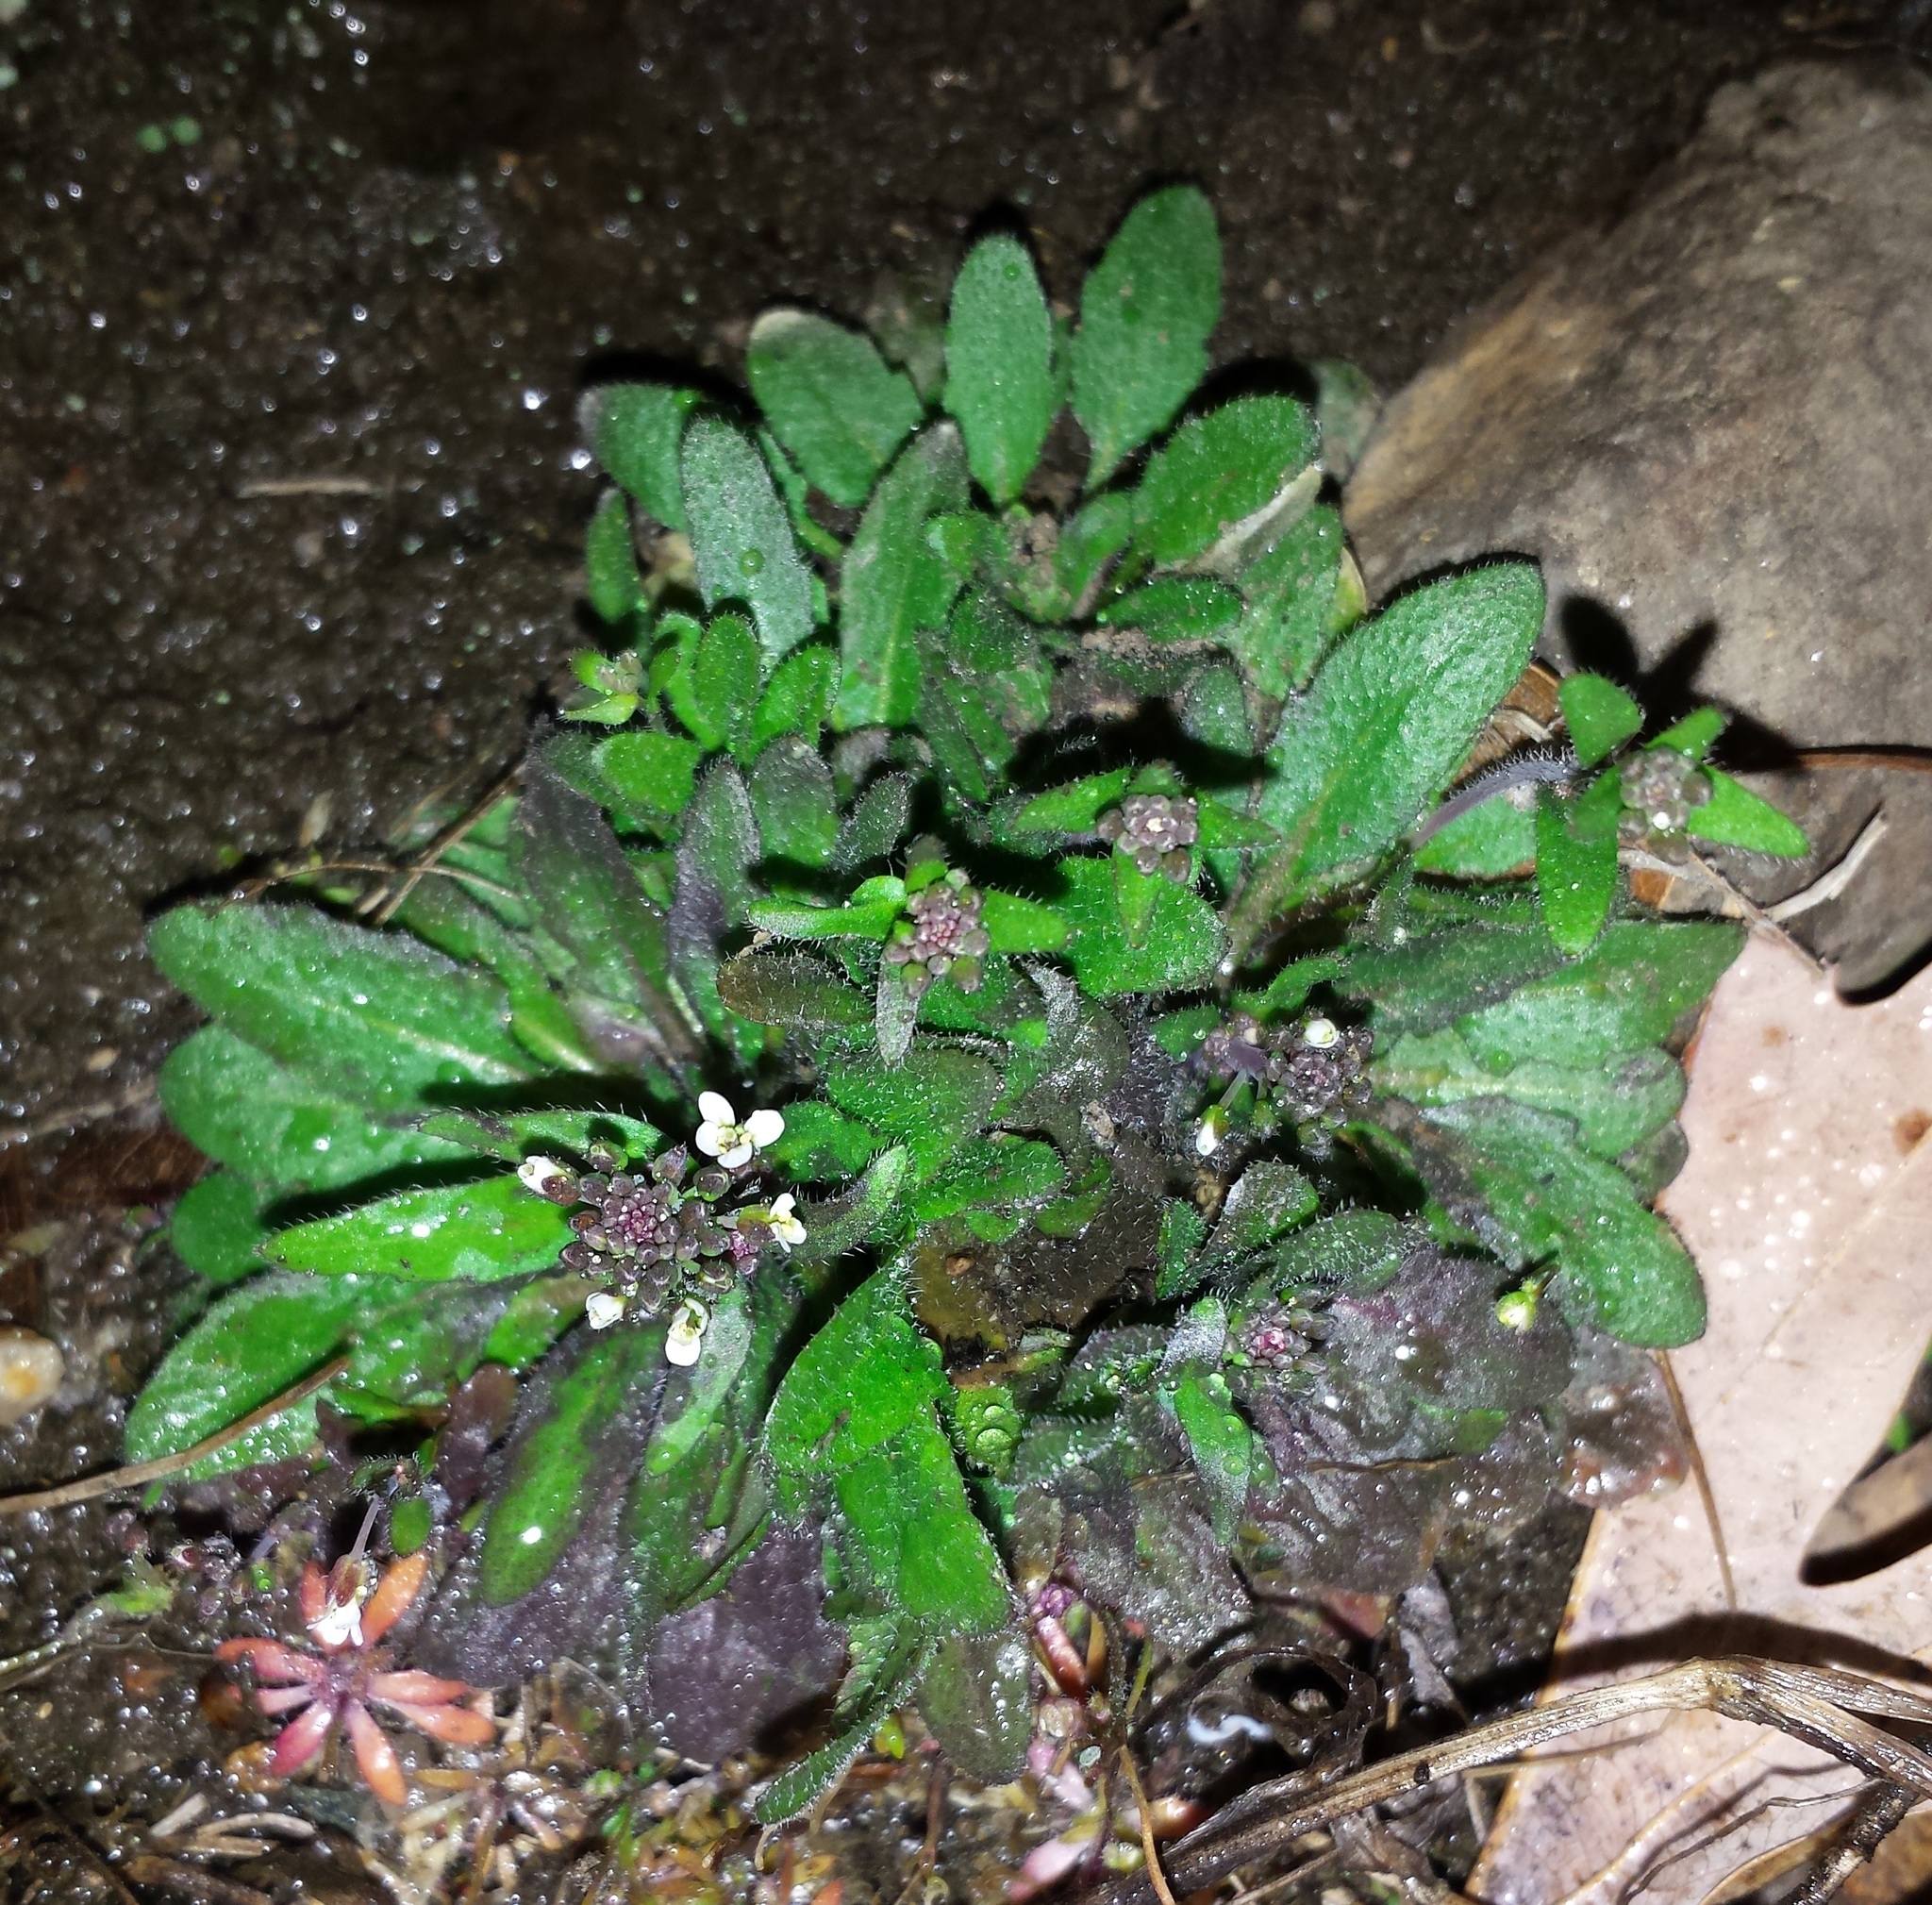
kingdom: Plantae
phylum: Tracheophyta
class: Magnoliopsida
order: Brassicales
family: Brassicaceae
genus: Arabidopsis
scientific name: Arabidopsis thaliana
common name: Thale cress
